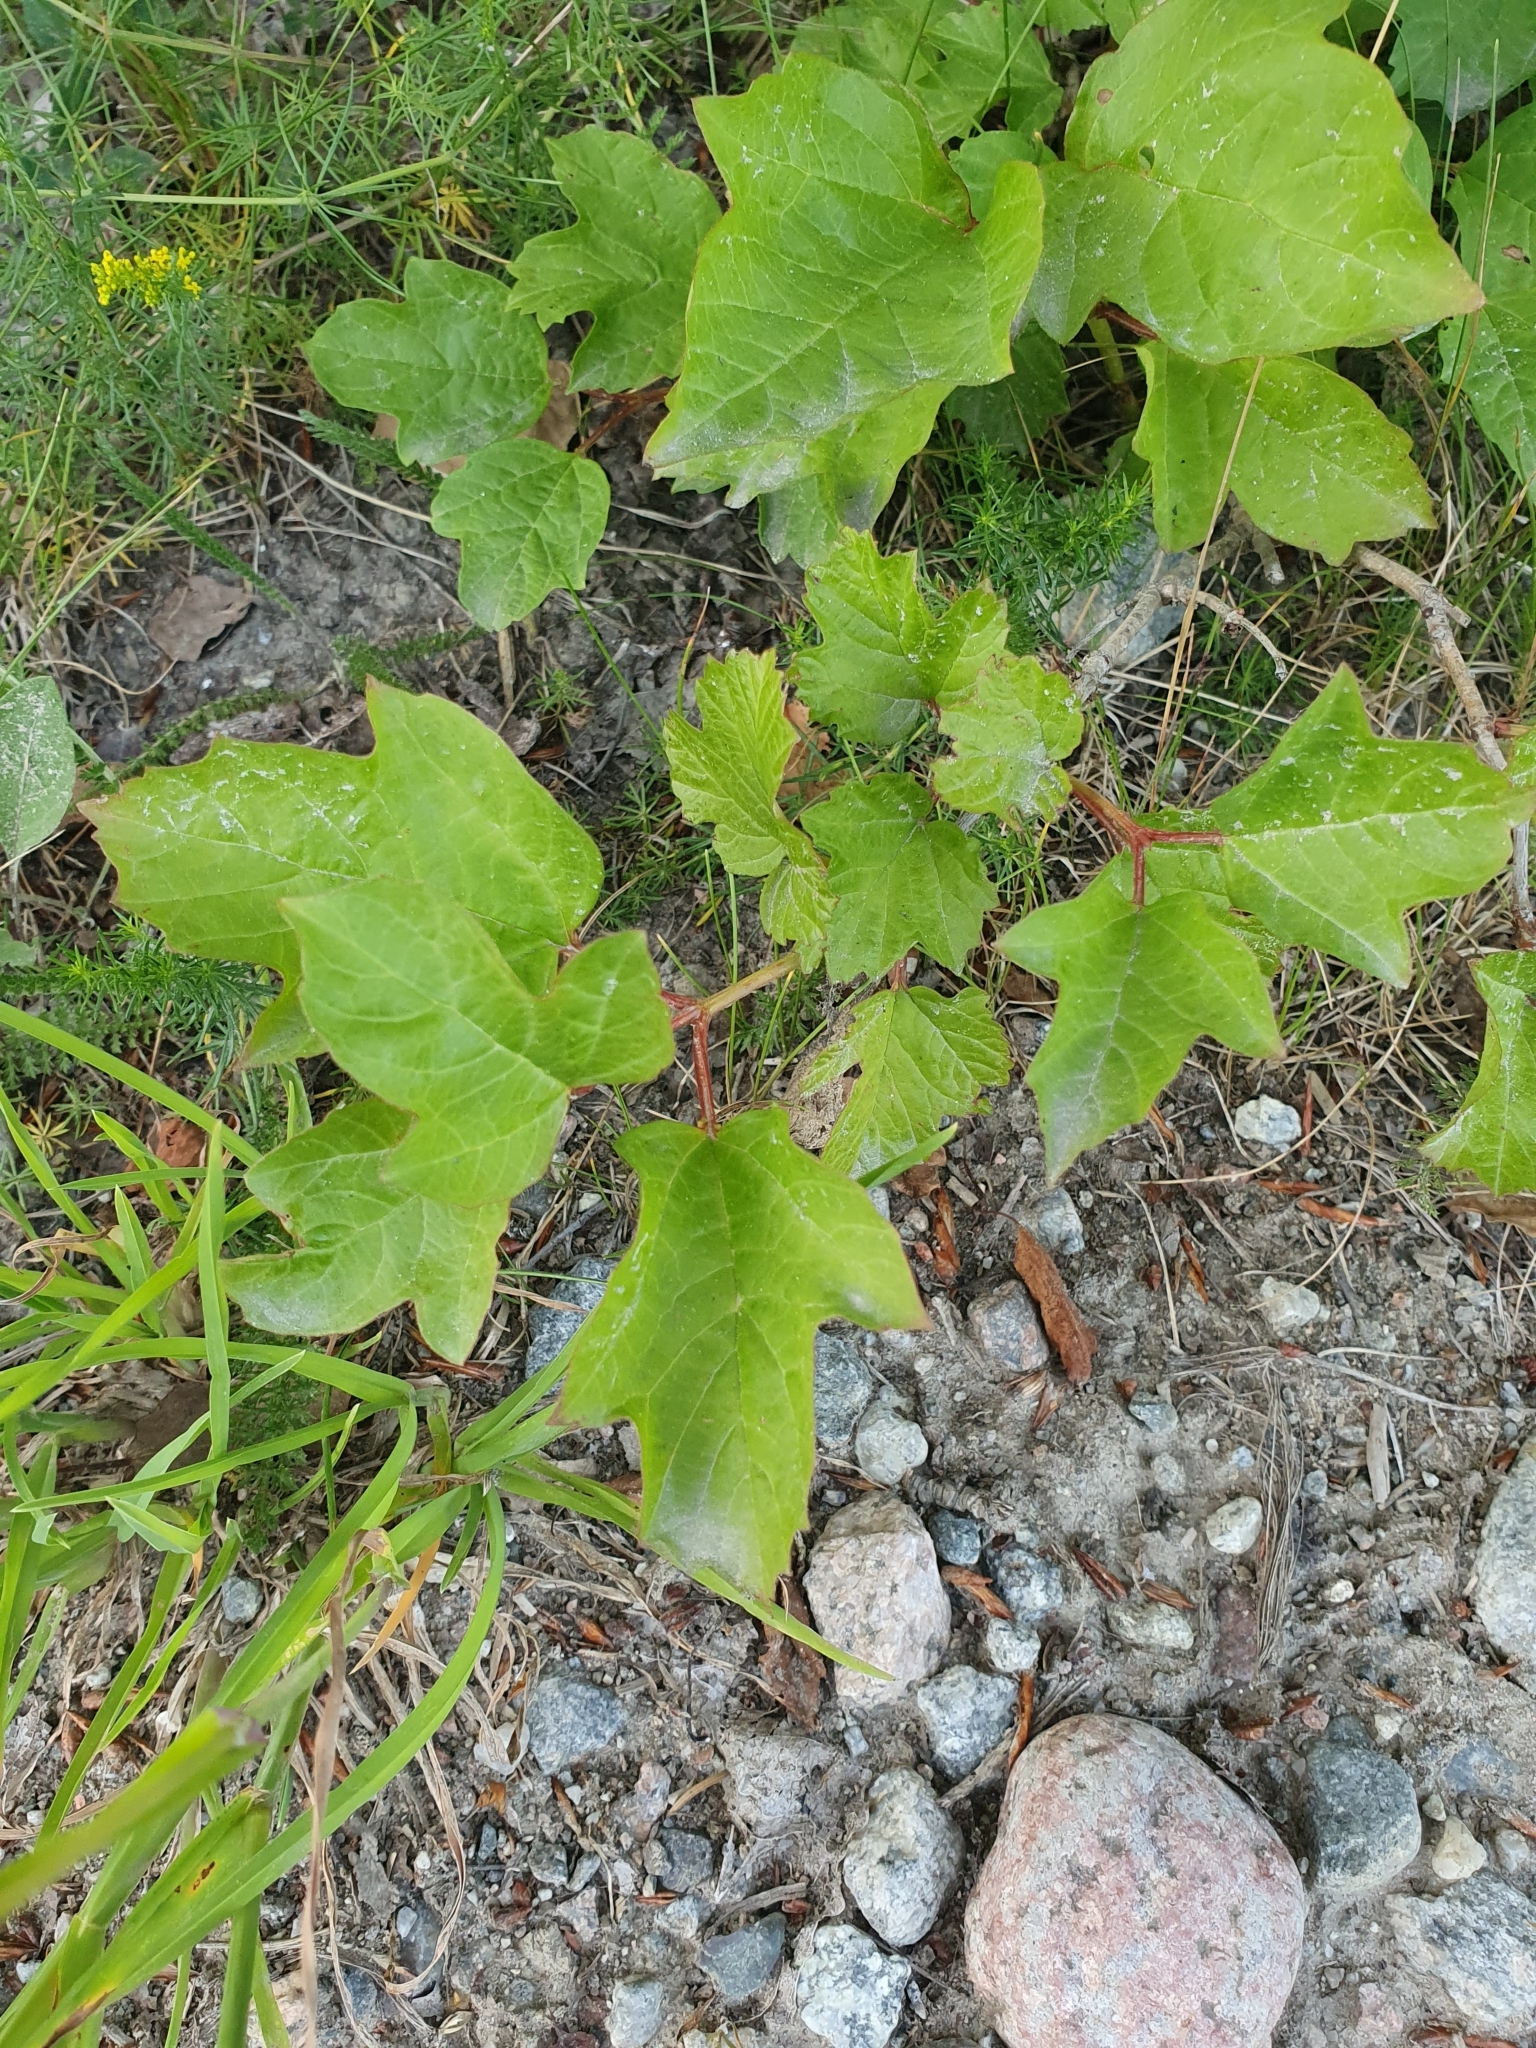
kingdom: Plantae
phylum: Tracheophyta
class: Magnoliopsida
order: Dipsacales
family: Viburnaceae
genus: Viburnum
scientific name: Viburnum opulus
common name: Guelder-rose
